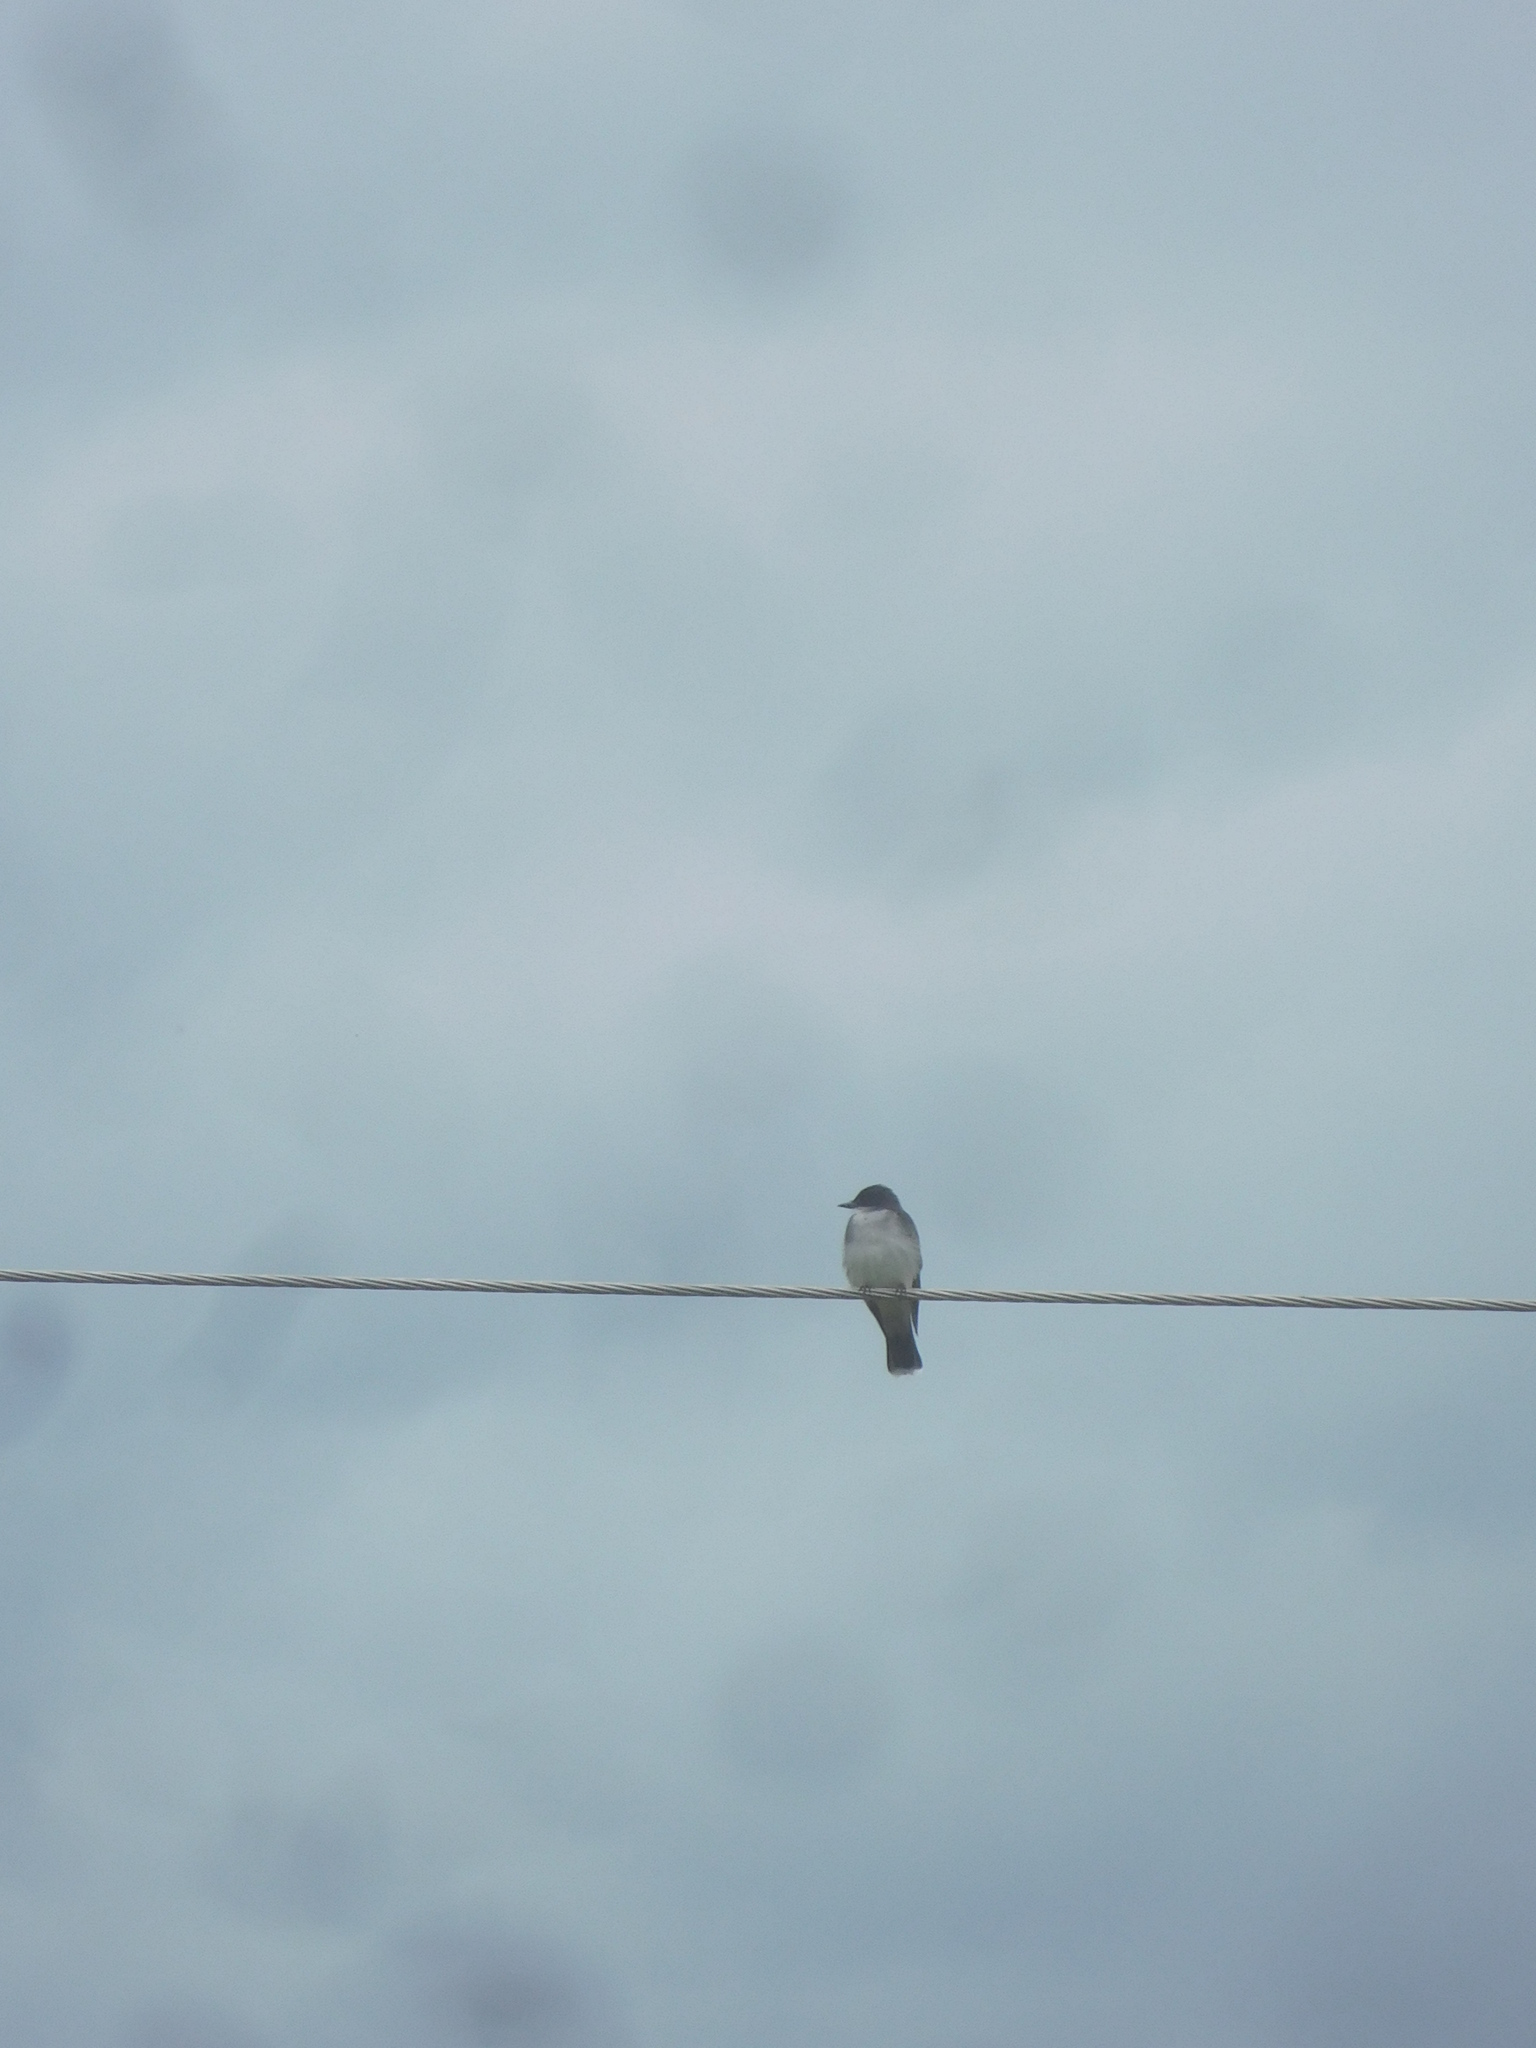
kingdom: Animalia
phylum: Chordata
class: Aves
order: Passeriformes
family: Tyrannidae
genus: Tyrannus
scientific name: Tyrannus tyrannus
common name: Eastern kingbird
